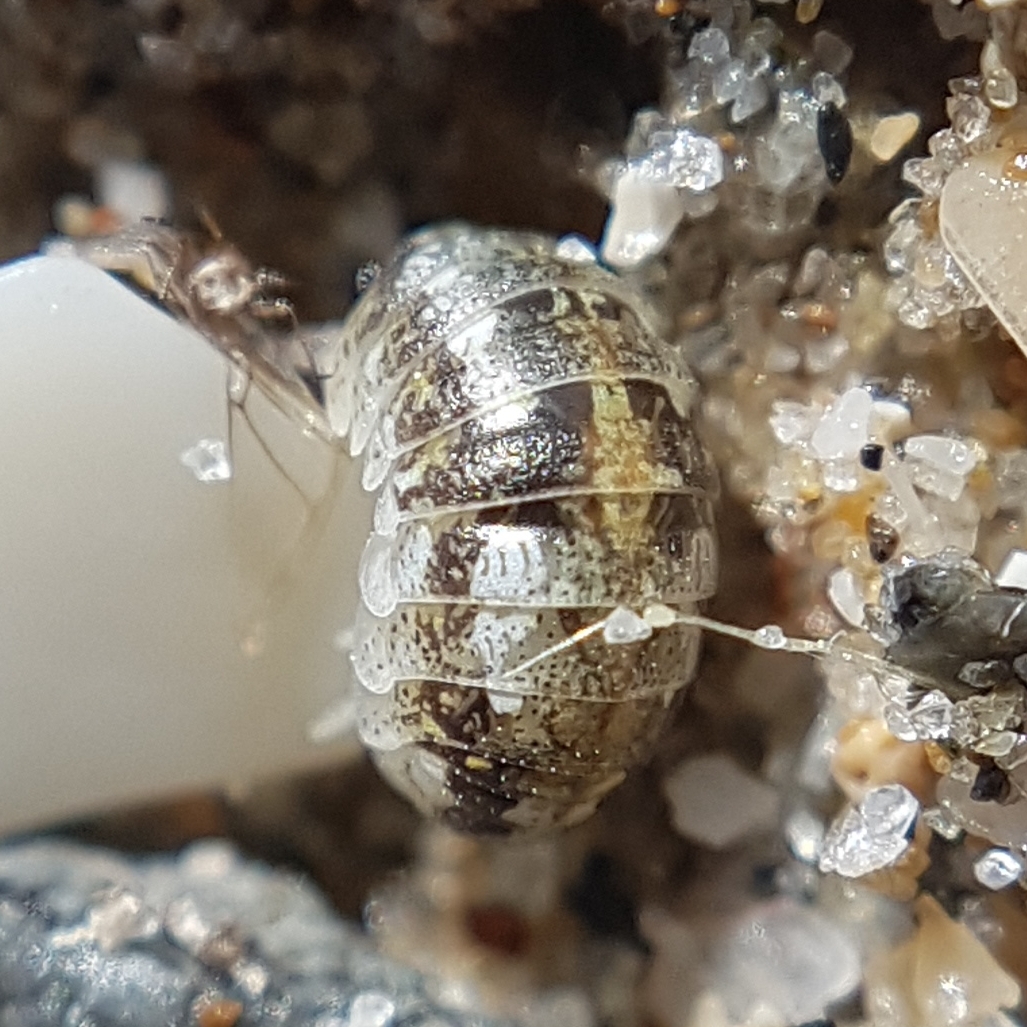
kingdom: Animalia
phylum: Arthropoda
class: Malacostraca
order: Isopoda
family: Tylidae
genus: Tylos
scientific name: Tylos ponticus
